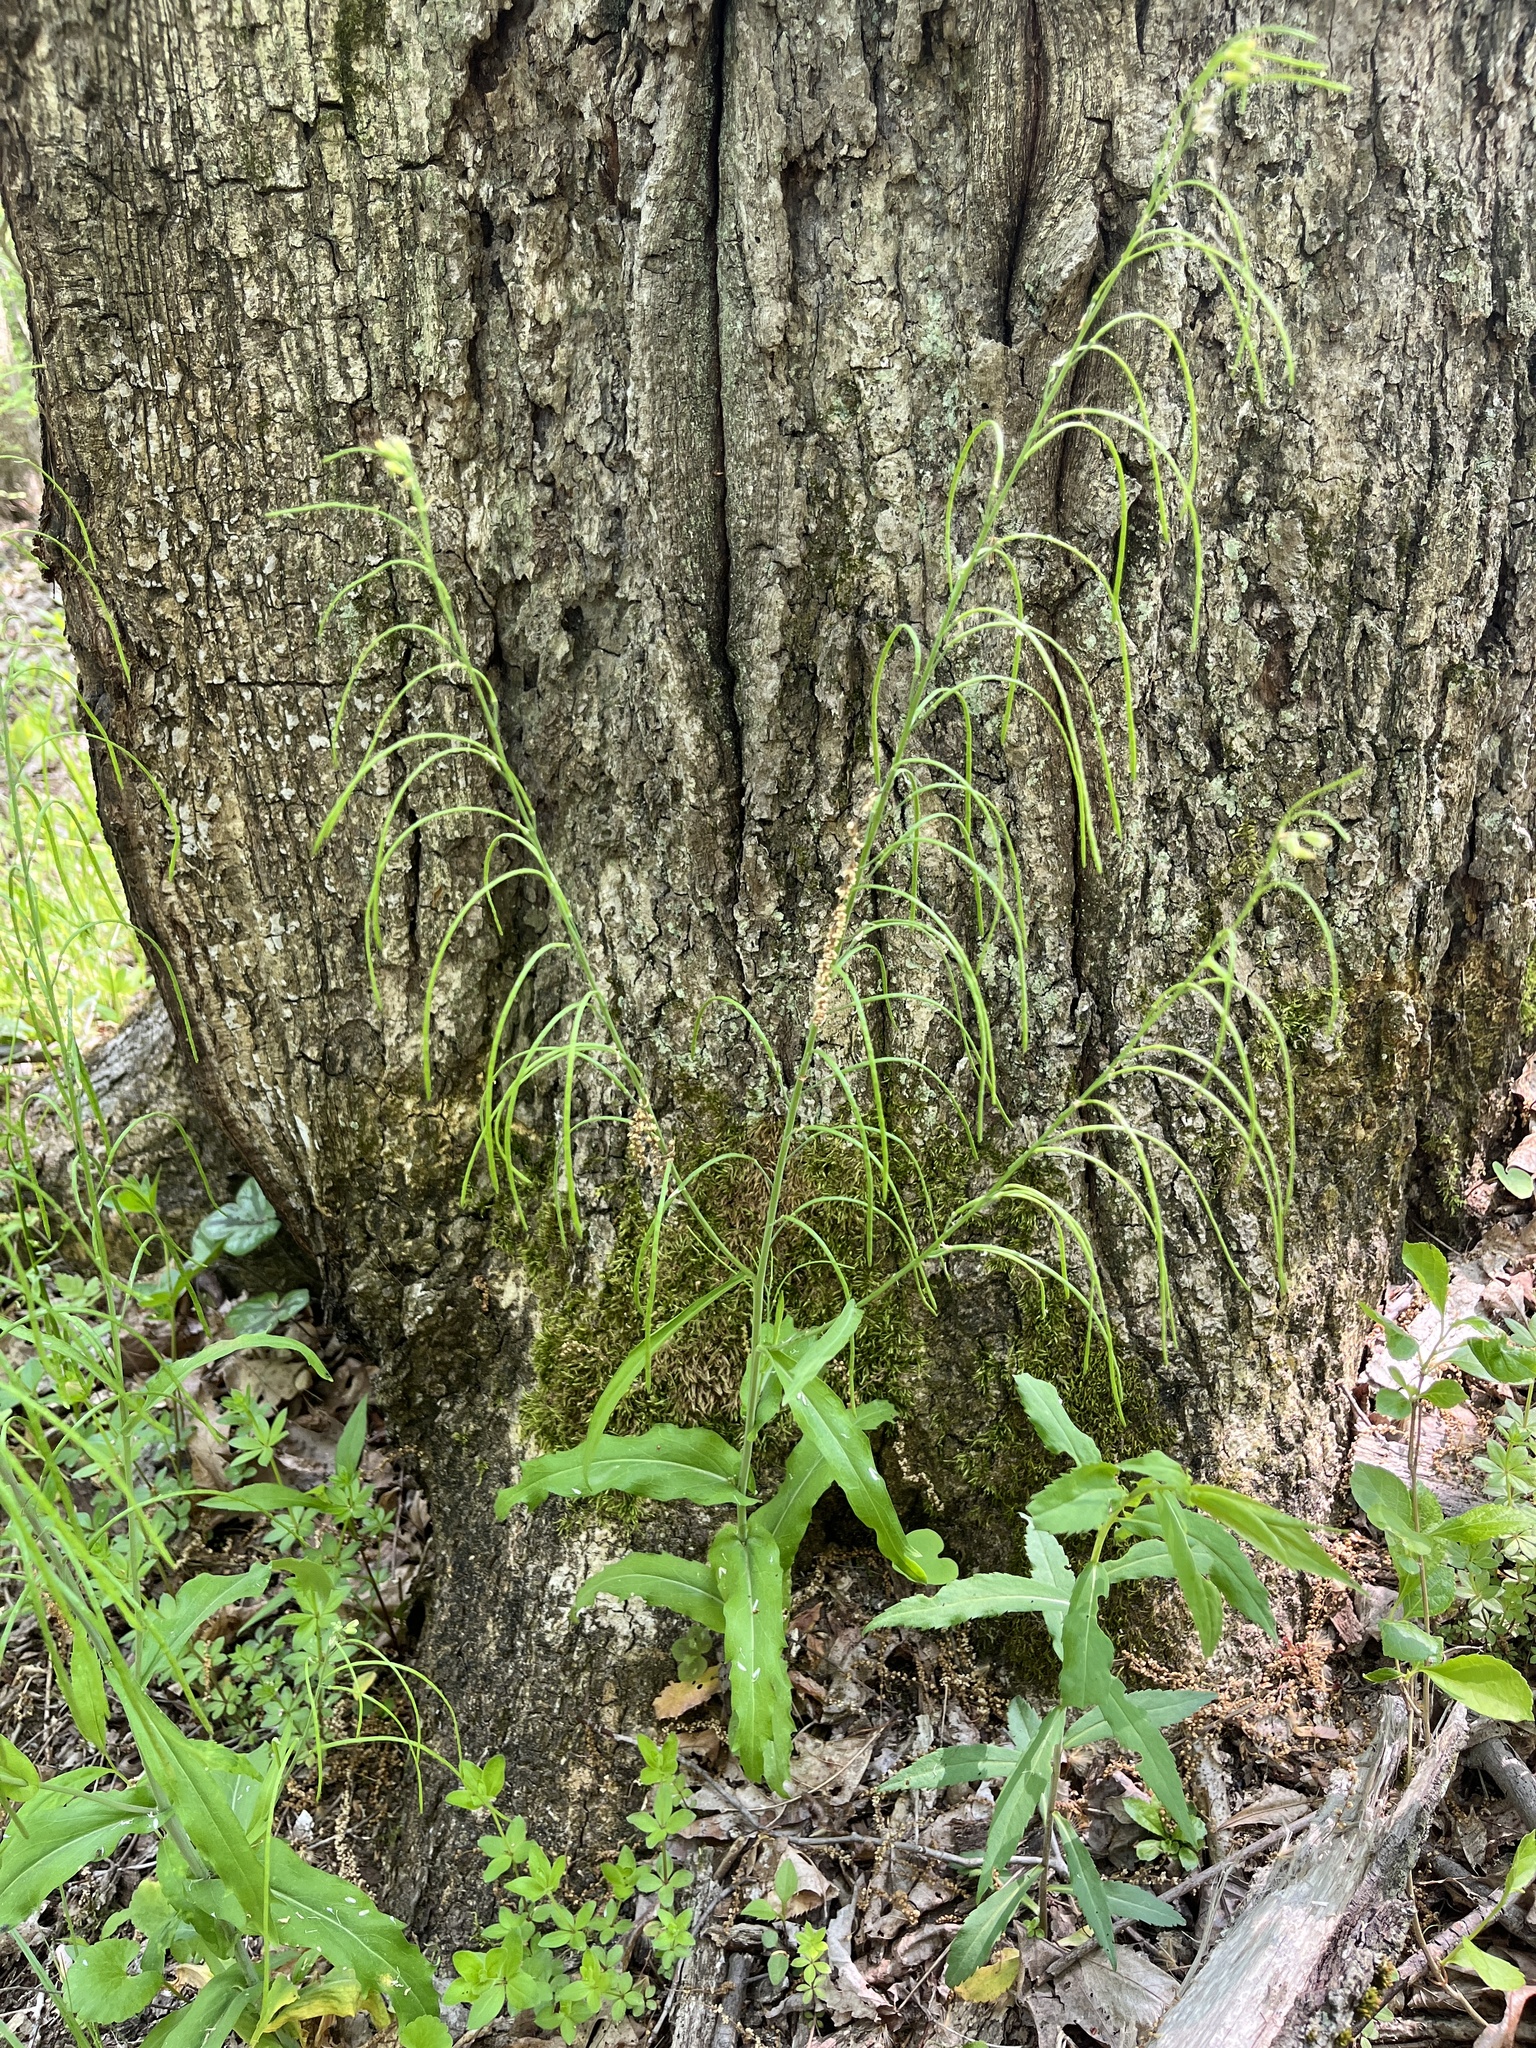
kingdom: Plantae
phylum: Tracheophyta
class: Magnoliopsida
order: Brassicales
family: Brassicaceae
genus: Borodinia
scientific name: Borodinia laevigata
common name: Smooth rockcress
